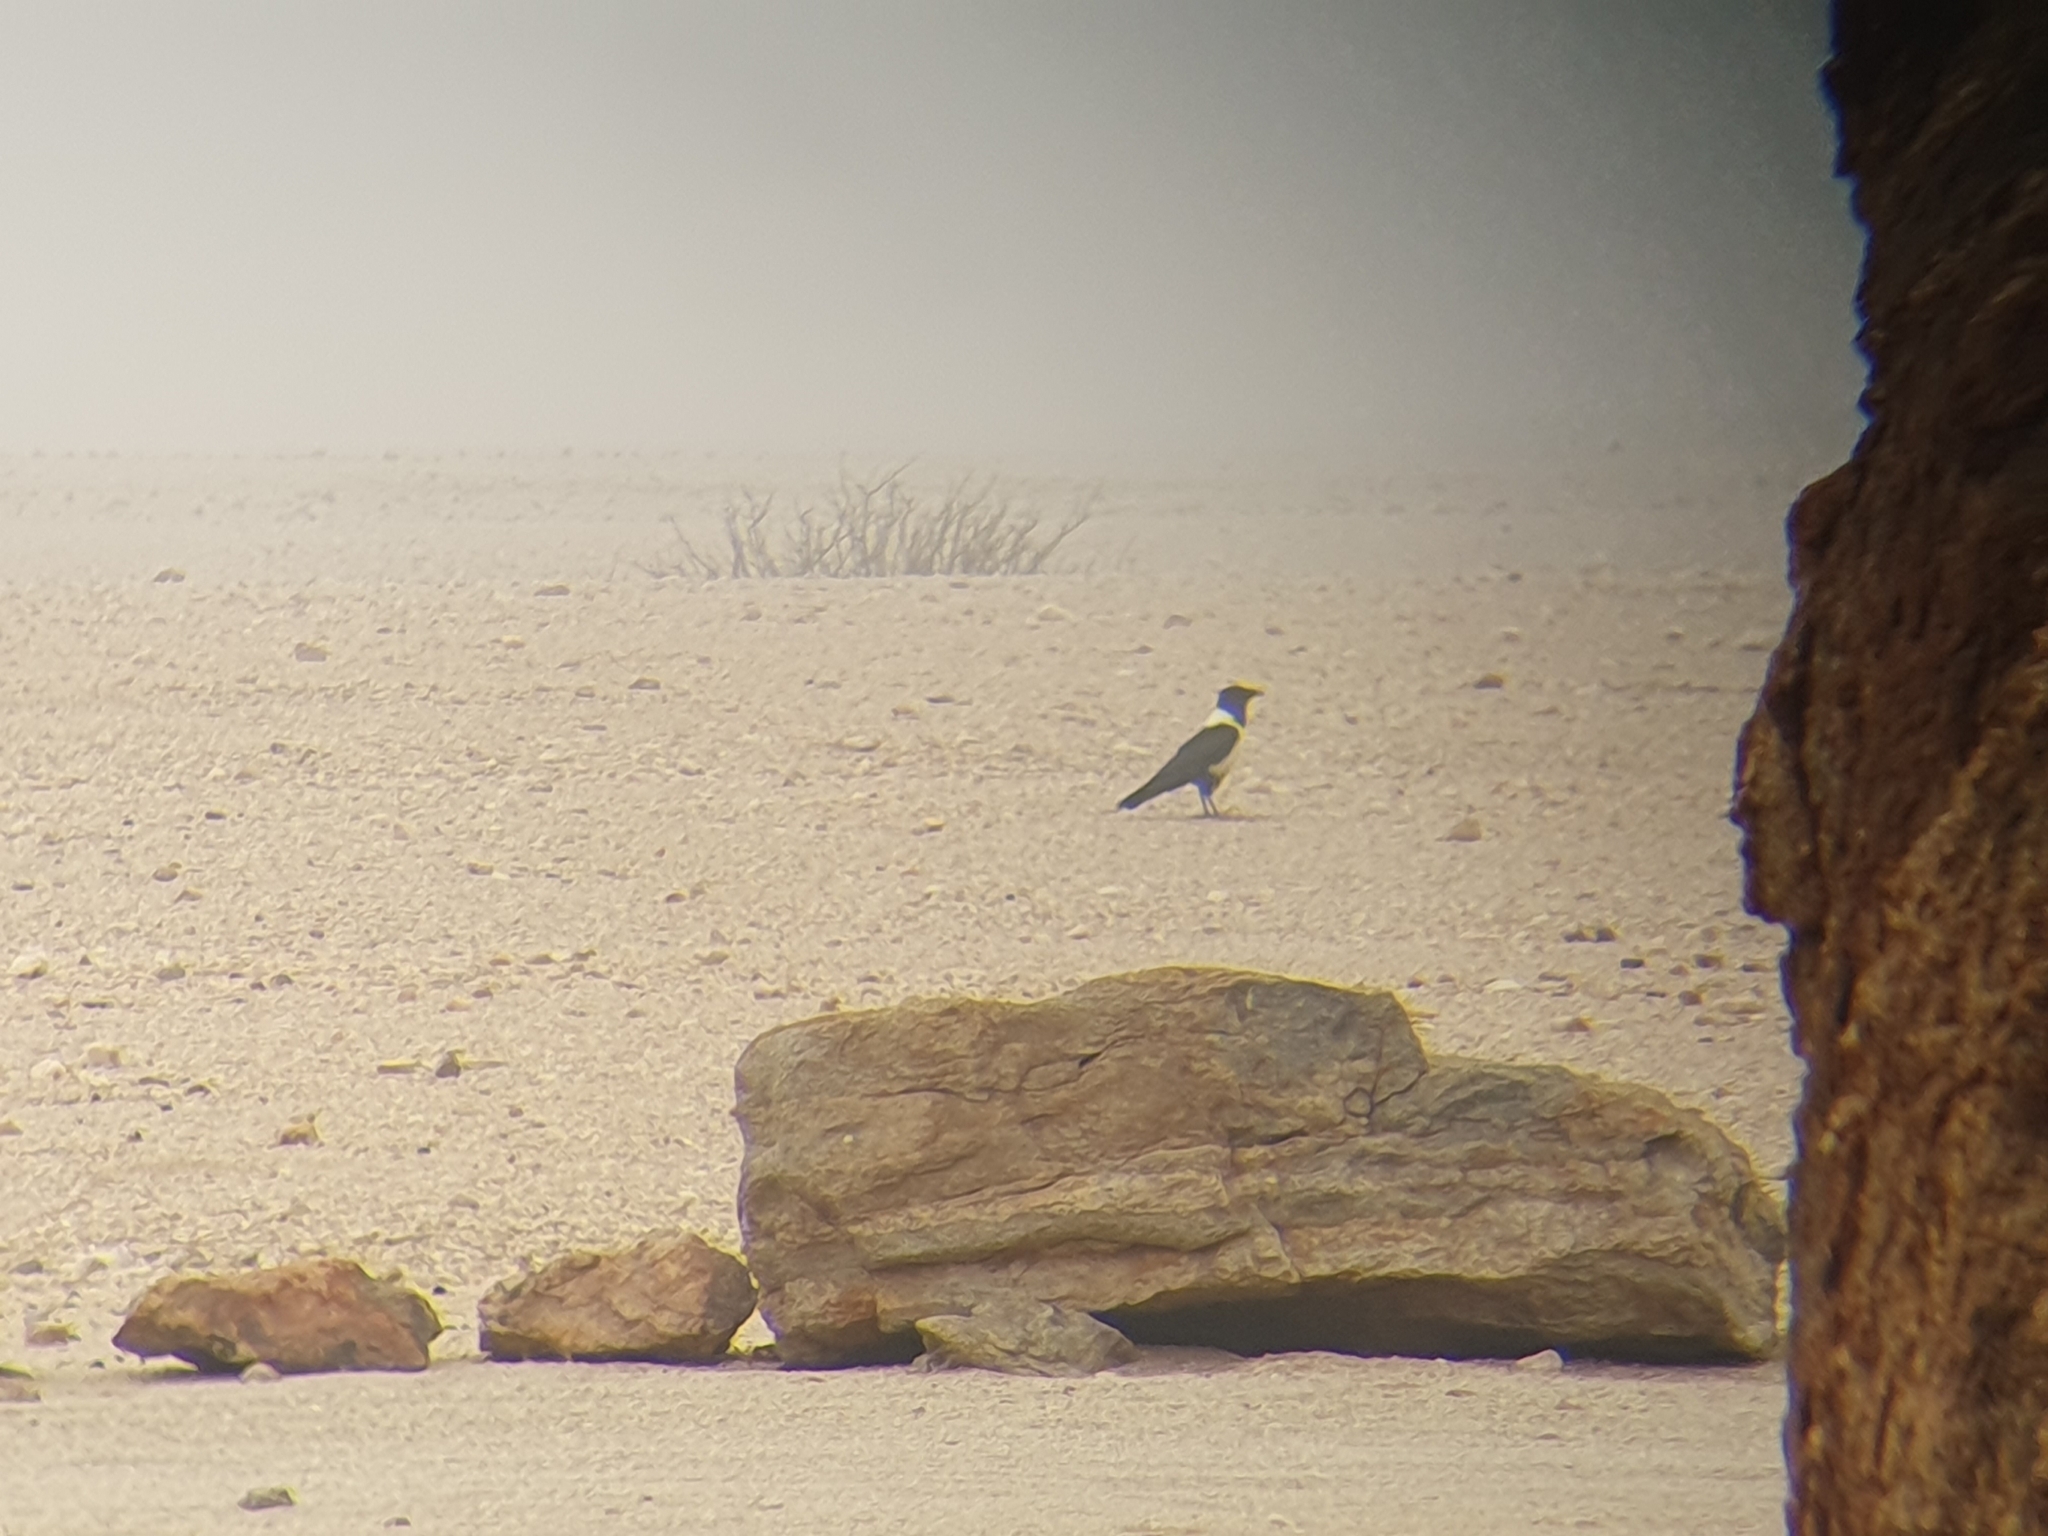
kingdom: Animalia
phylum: Chordata
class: Aves
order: Passeriformes
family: Corvidae
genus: Corvus
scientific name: Corvus albus
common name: Pied crow
